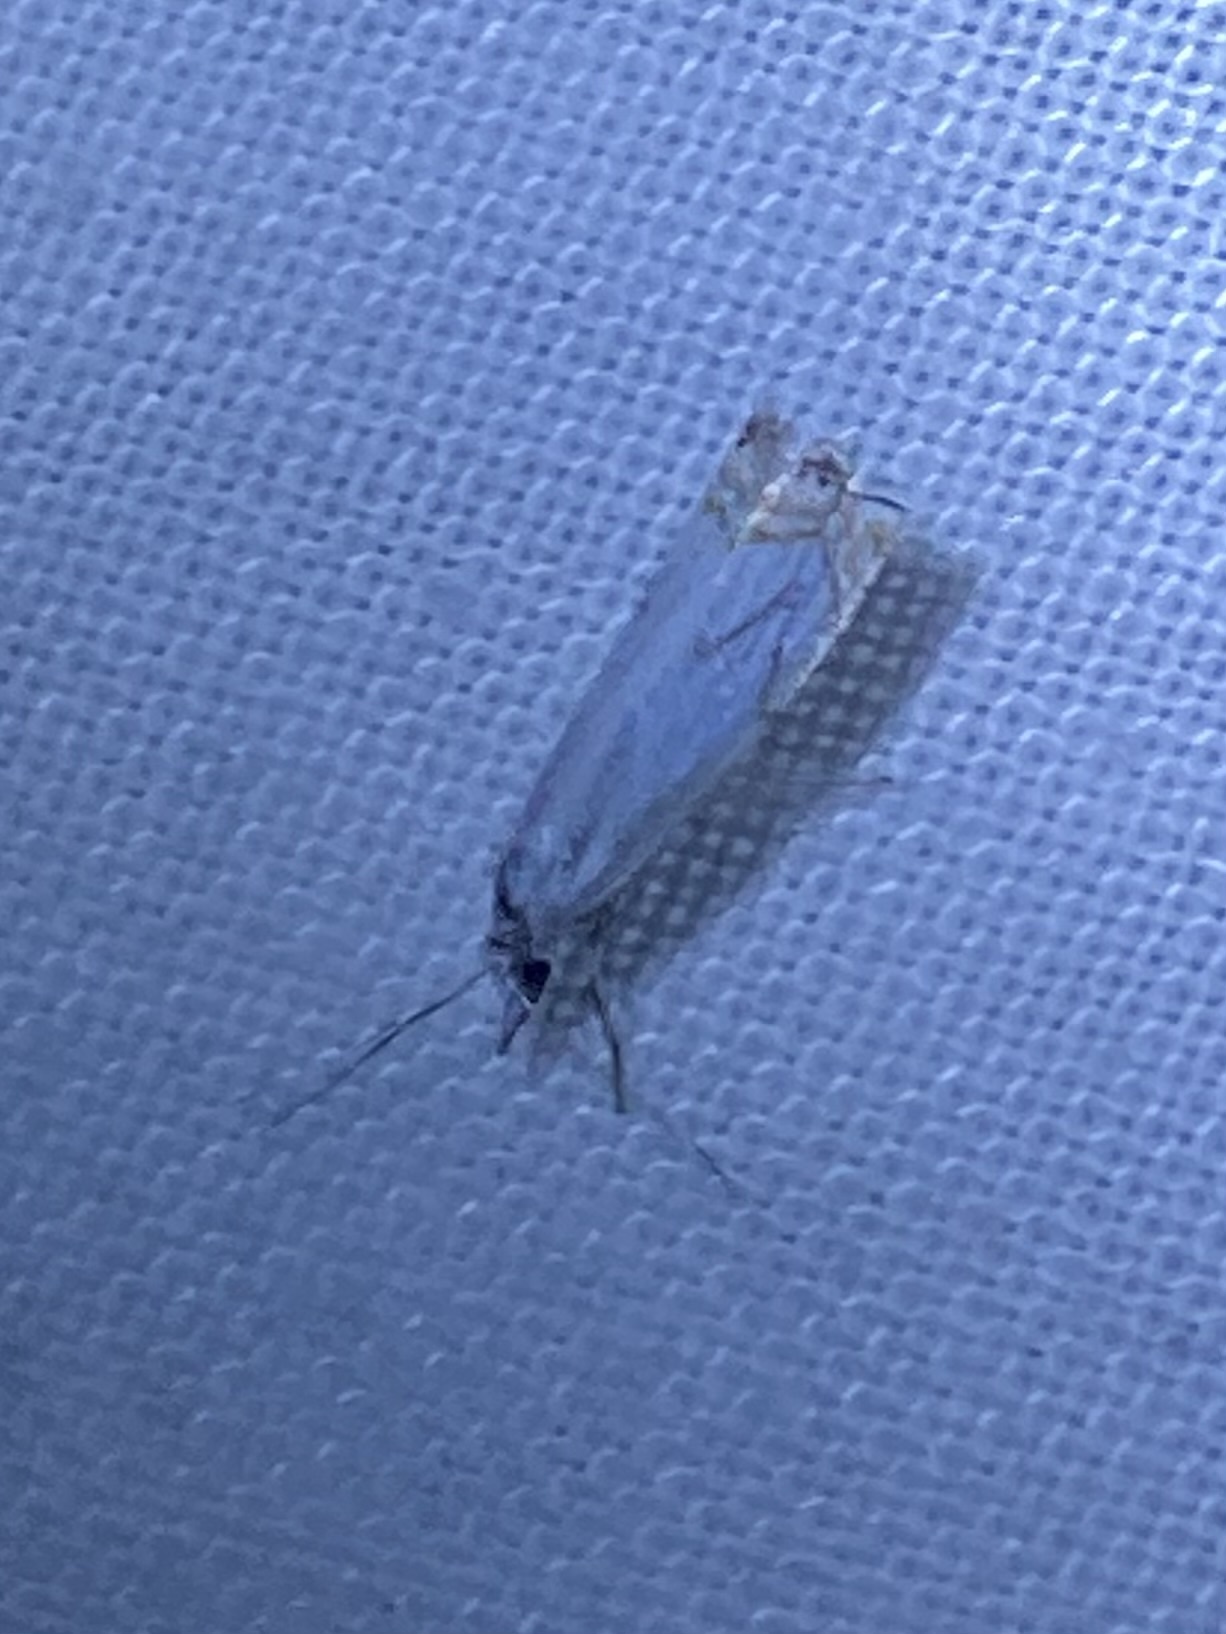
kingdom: Animalia
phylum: Arthropoda
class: Insecta
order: Lepidoptera
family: Crambidae
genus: Crambus
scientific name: Crambus albellus
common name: Small white grass-veneer
